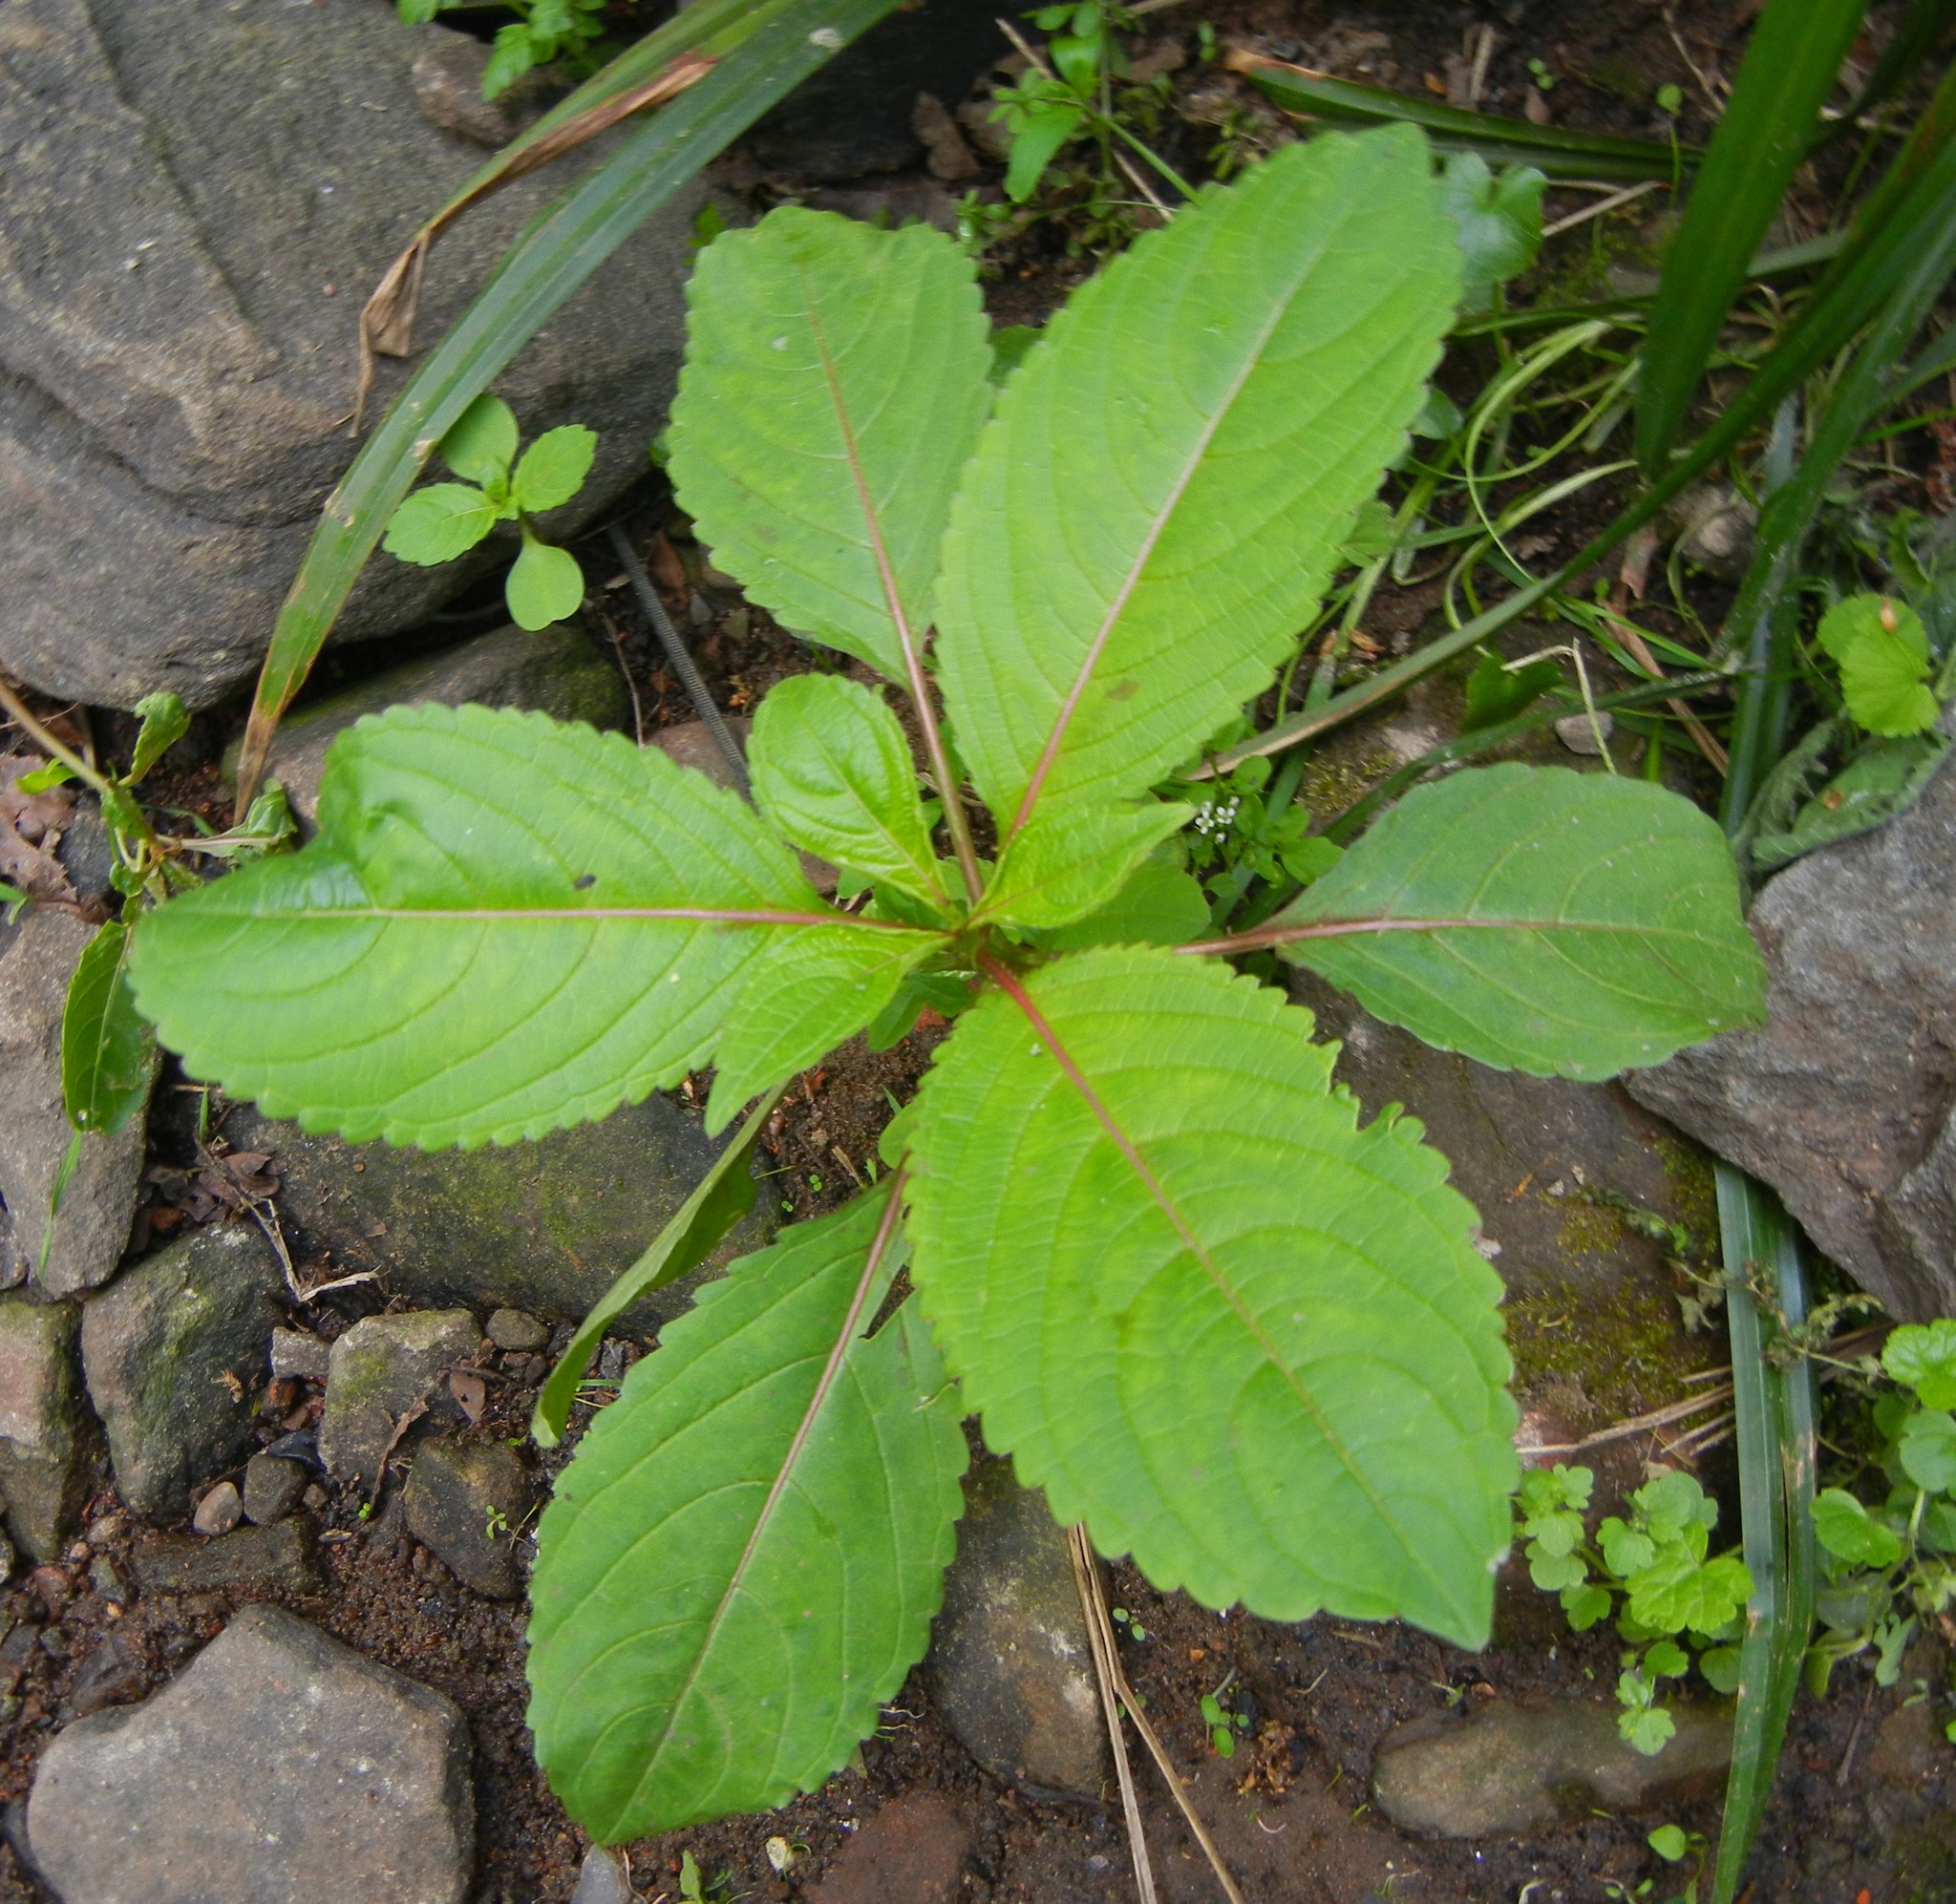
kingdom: Plantae
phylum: Tracheophyta
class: Magnoliopsida
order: Ericales
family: Balsaminaceae
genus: Impatiens
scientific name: Impatiens glandulifera
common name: Himalayan balsam
